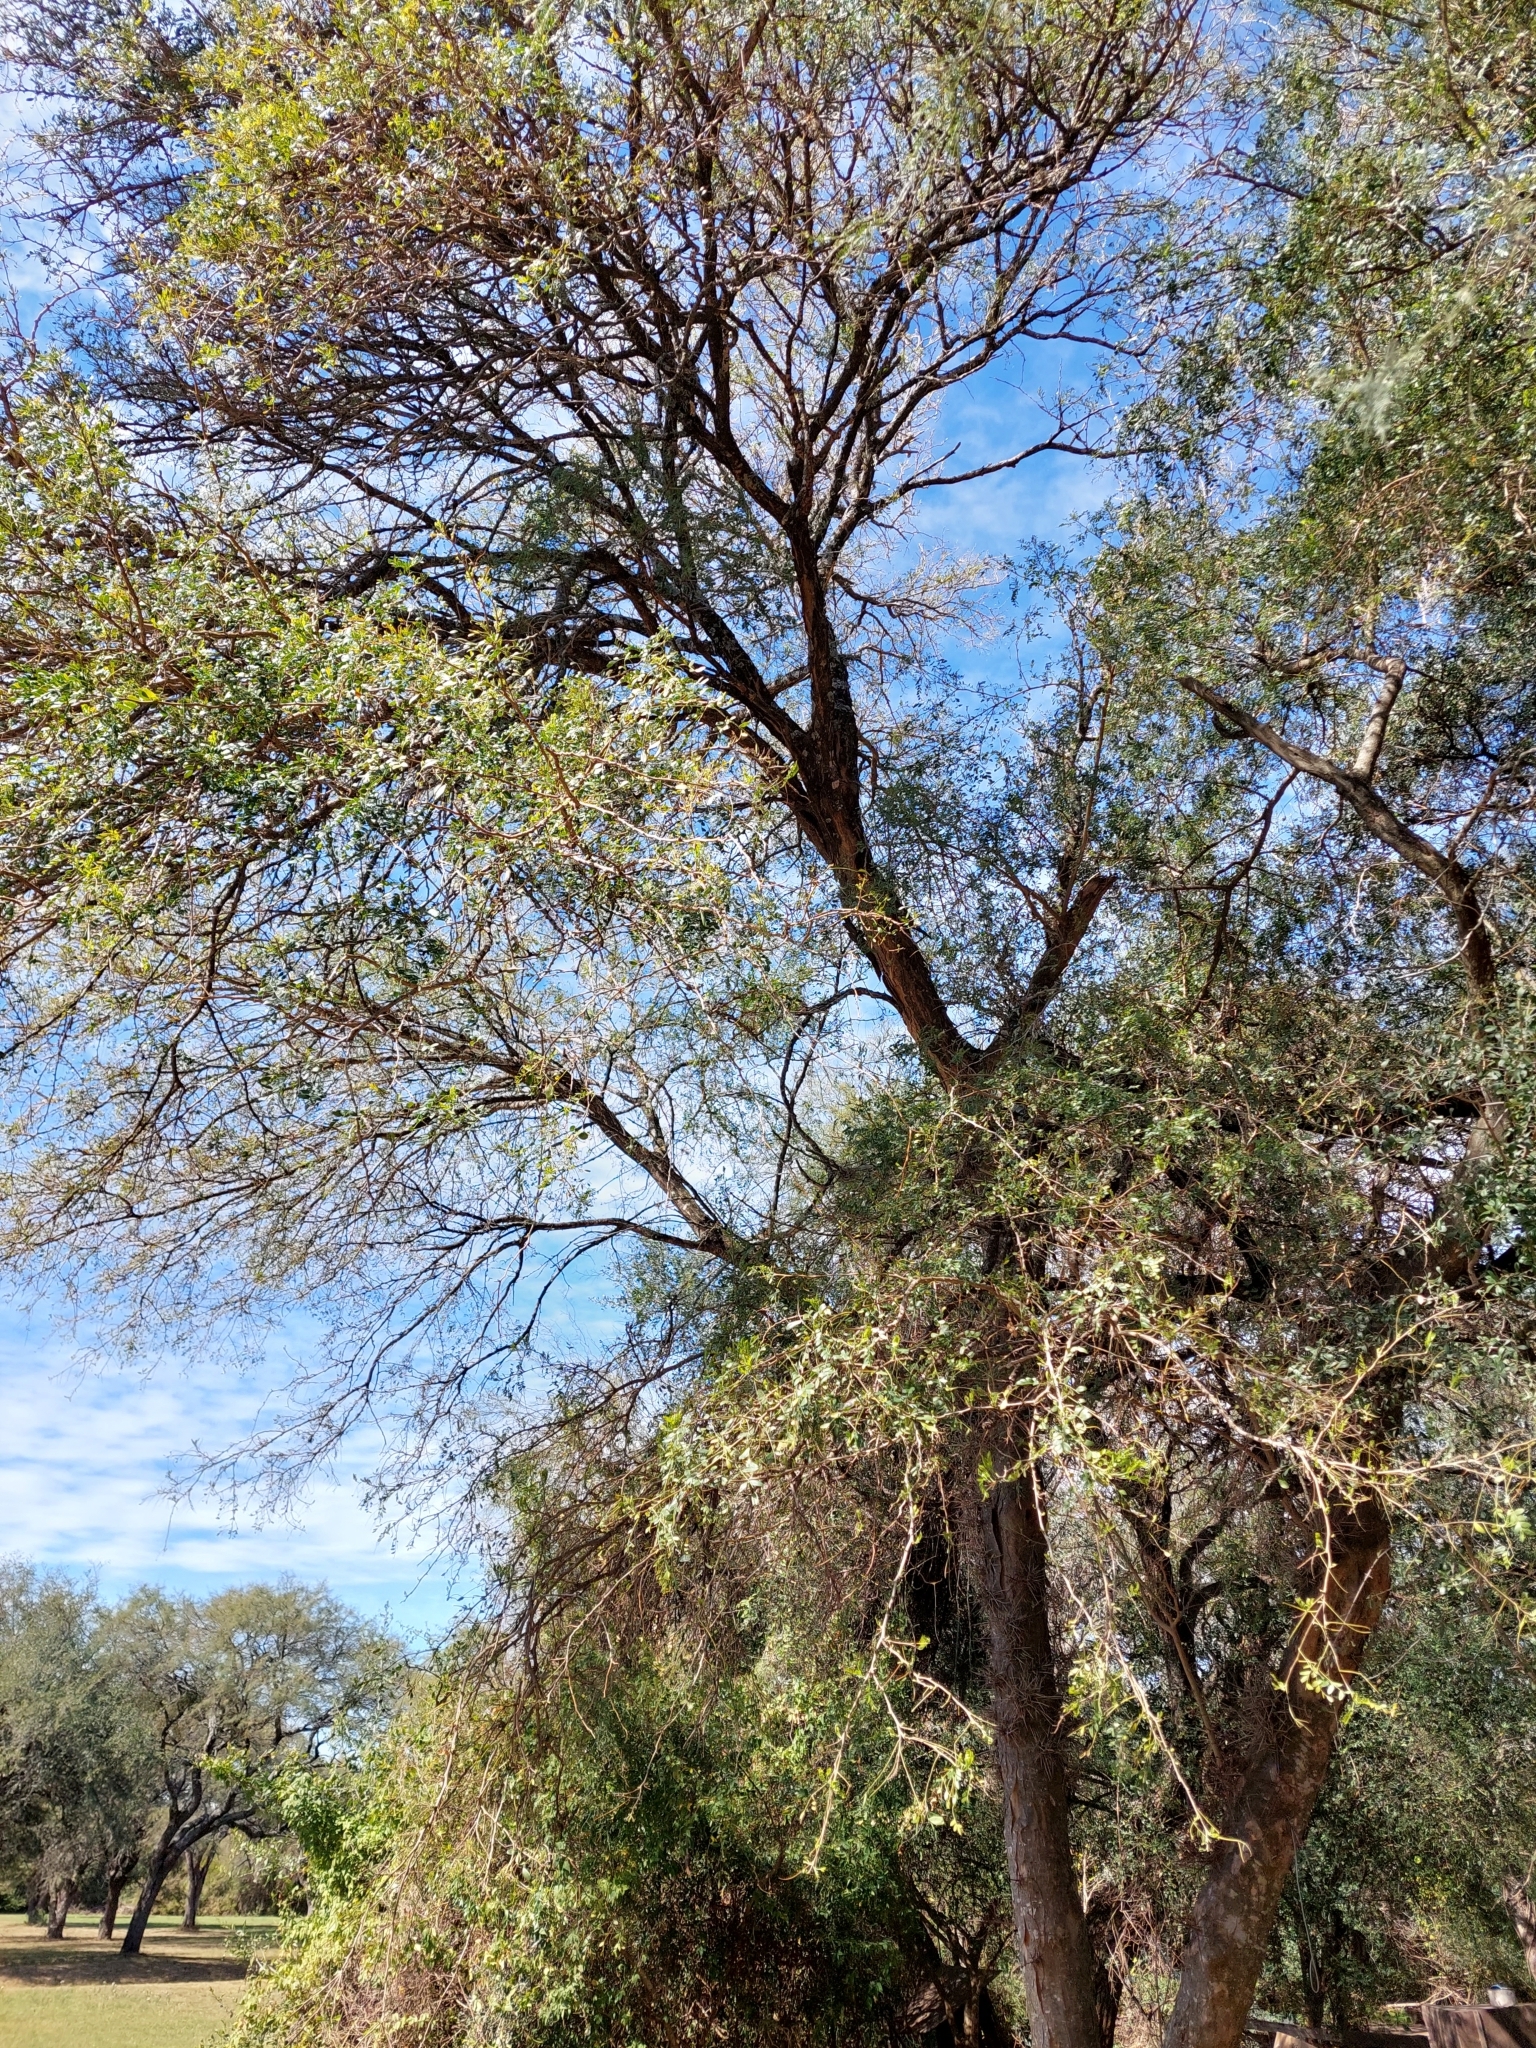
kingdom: Plantae
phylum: Tracheophyta
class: Magnoliopsida
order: Fabales
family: Fabaceae
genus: Gleditsia
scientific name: Gleditsia amorphoides
